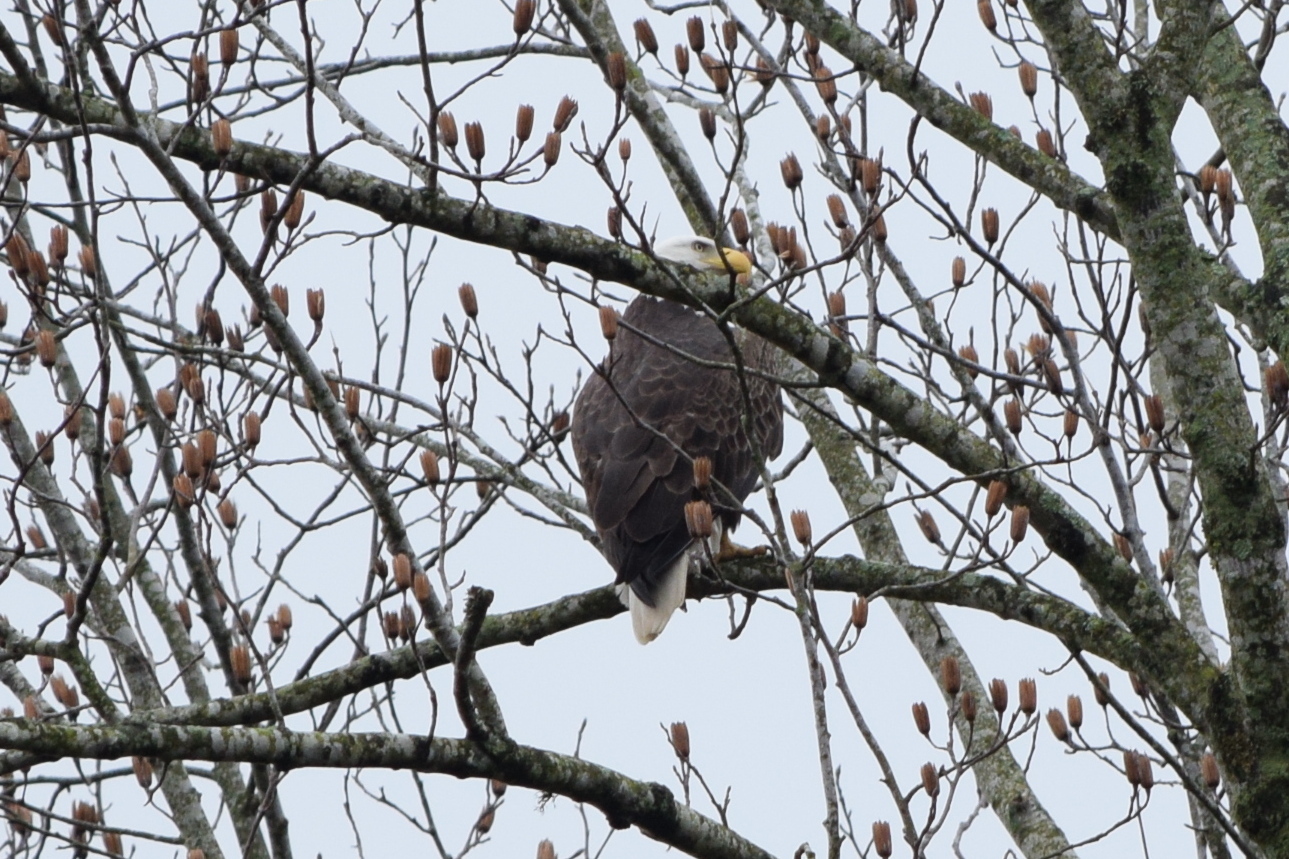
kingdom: Animalia
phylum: Chordata
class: Aves
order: Accipitriformes
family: Accipitridae
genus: Haliaeetus
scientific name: Haliaeetus leucocephalus
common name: Bald eagle
